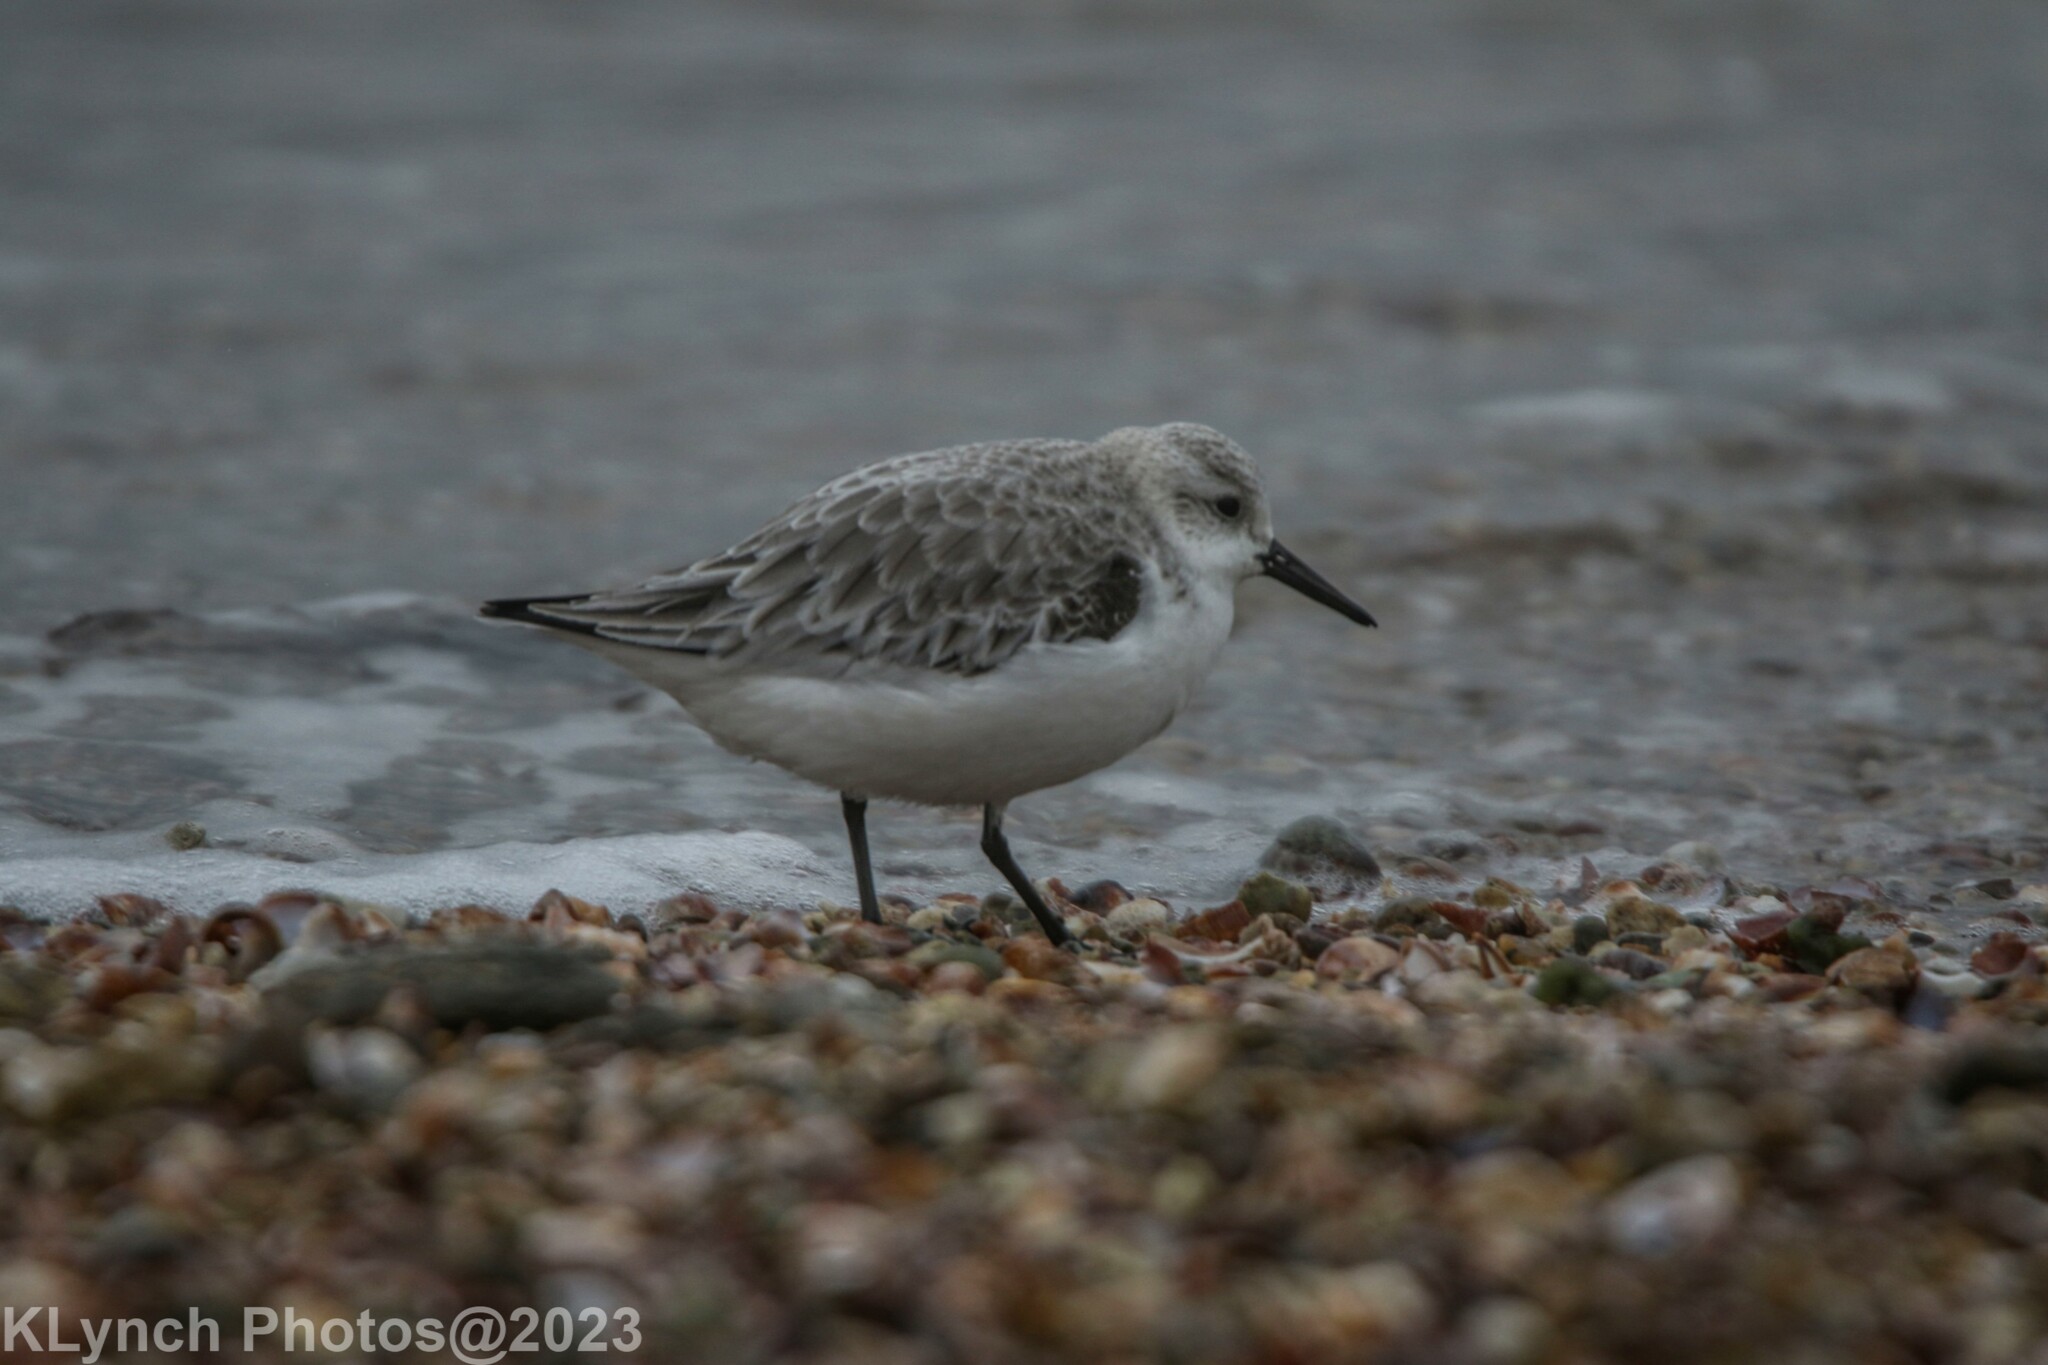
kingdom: Animalia
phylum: Chordata
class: Aves
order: Charadriiformes
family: Scolopacidae
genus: Calidris
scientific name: Calidris alba
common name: Sanderling
